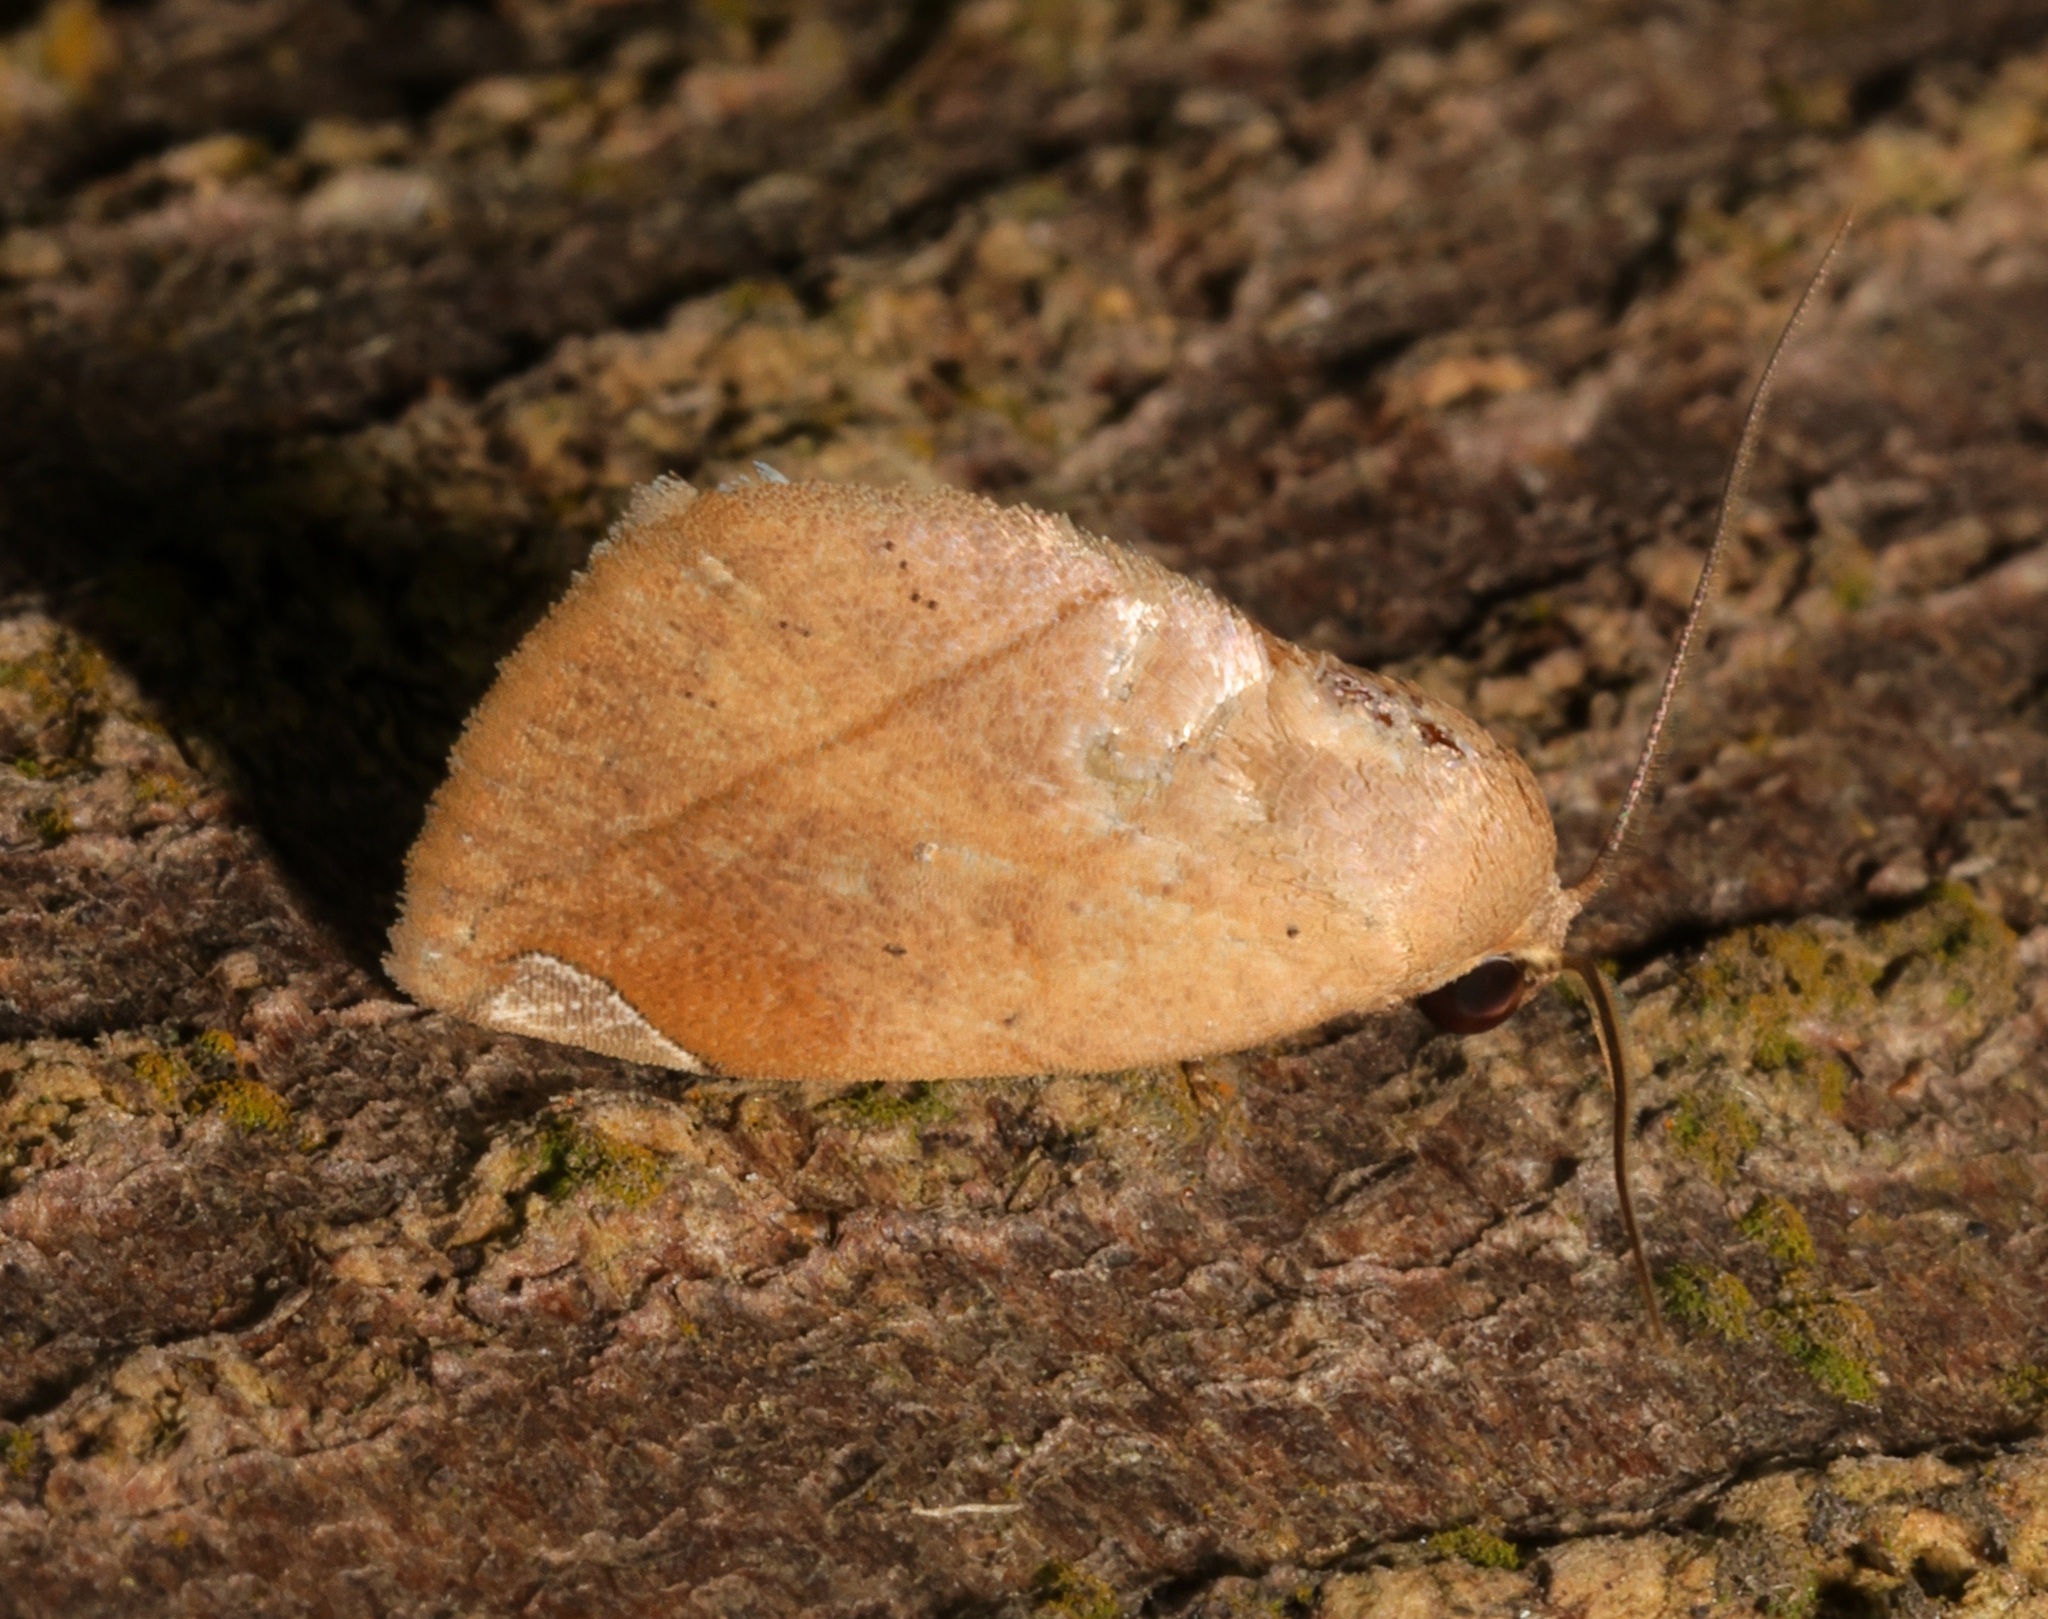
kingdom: Animalia
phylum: Arthropoda
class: Insecta
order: Lepidoptera
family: Nolidae
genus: Negeta
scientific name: Negeta contrariata
